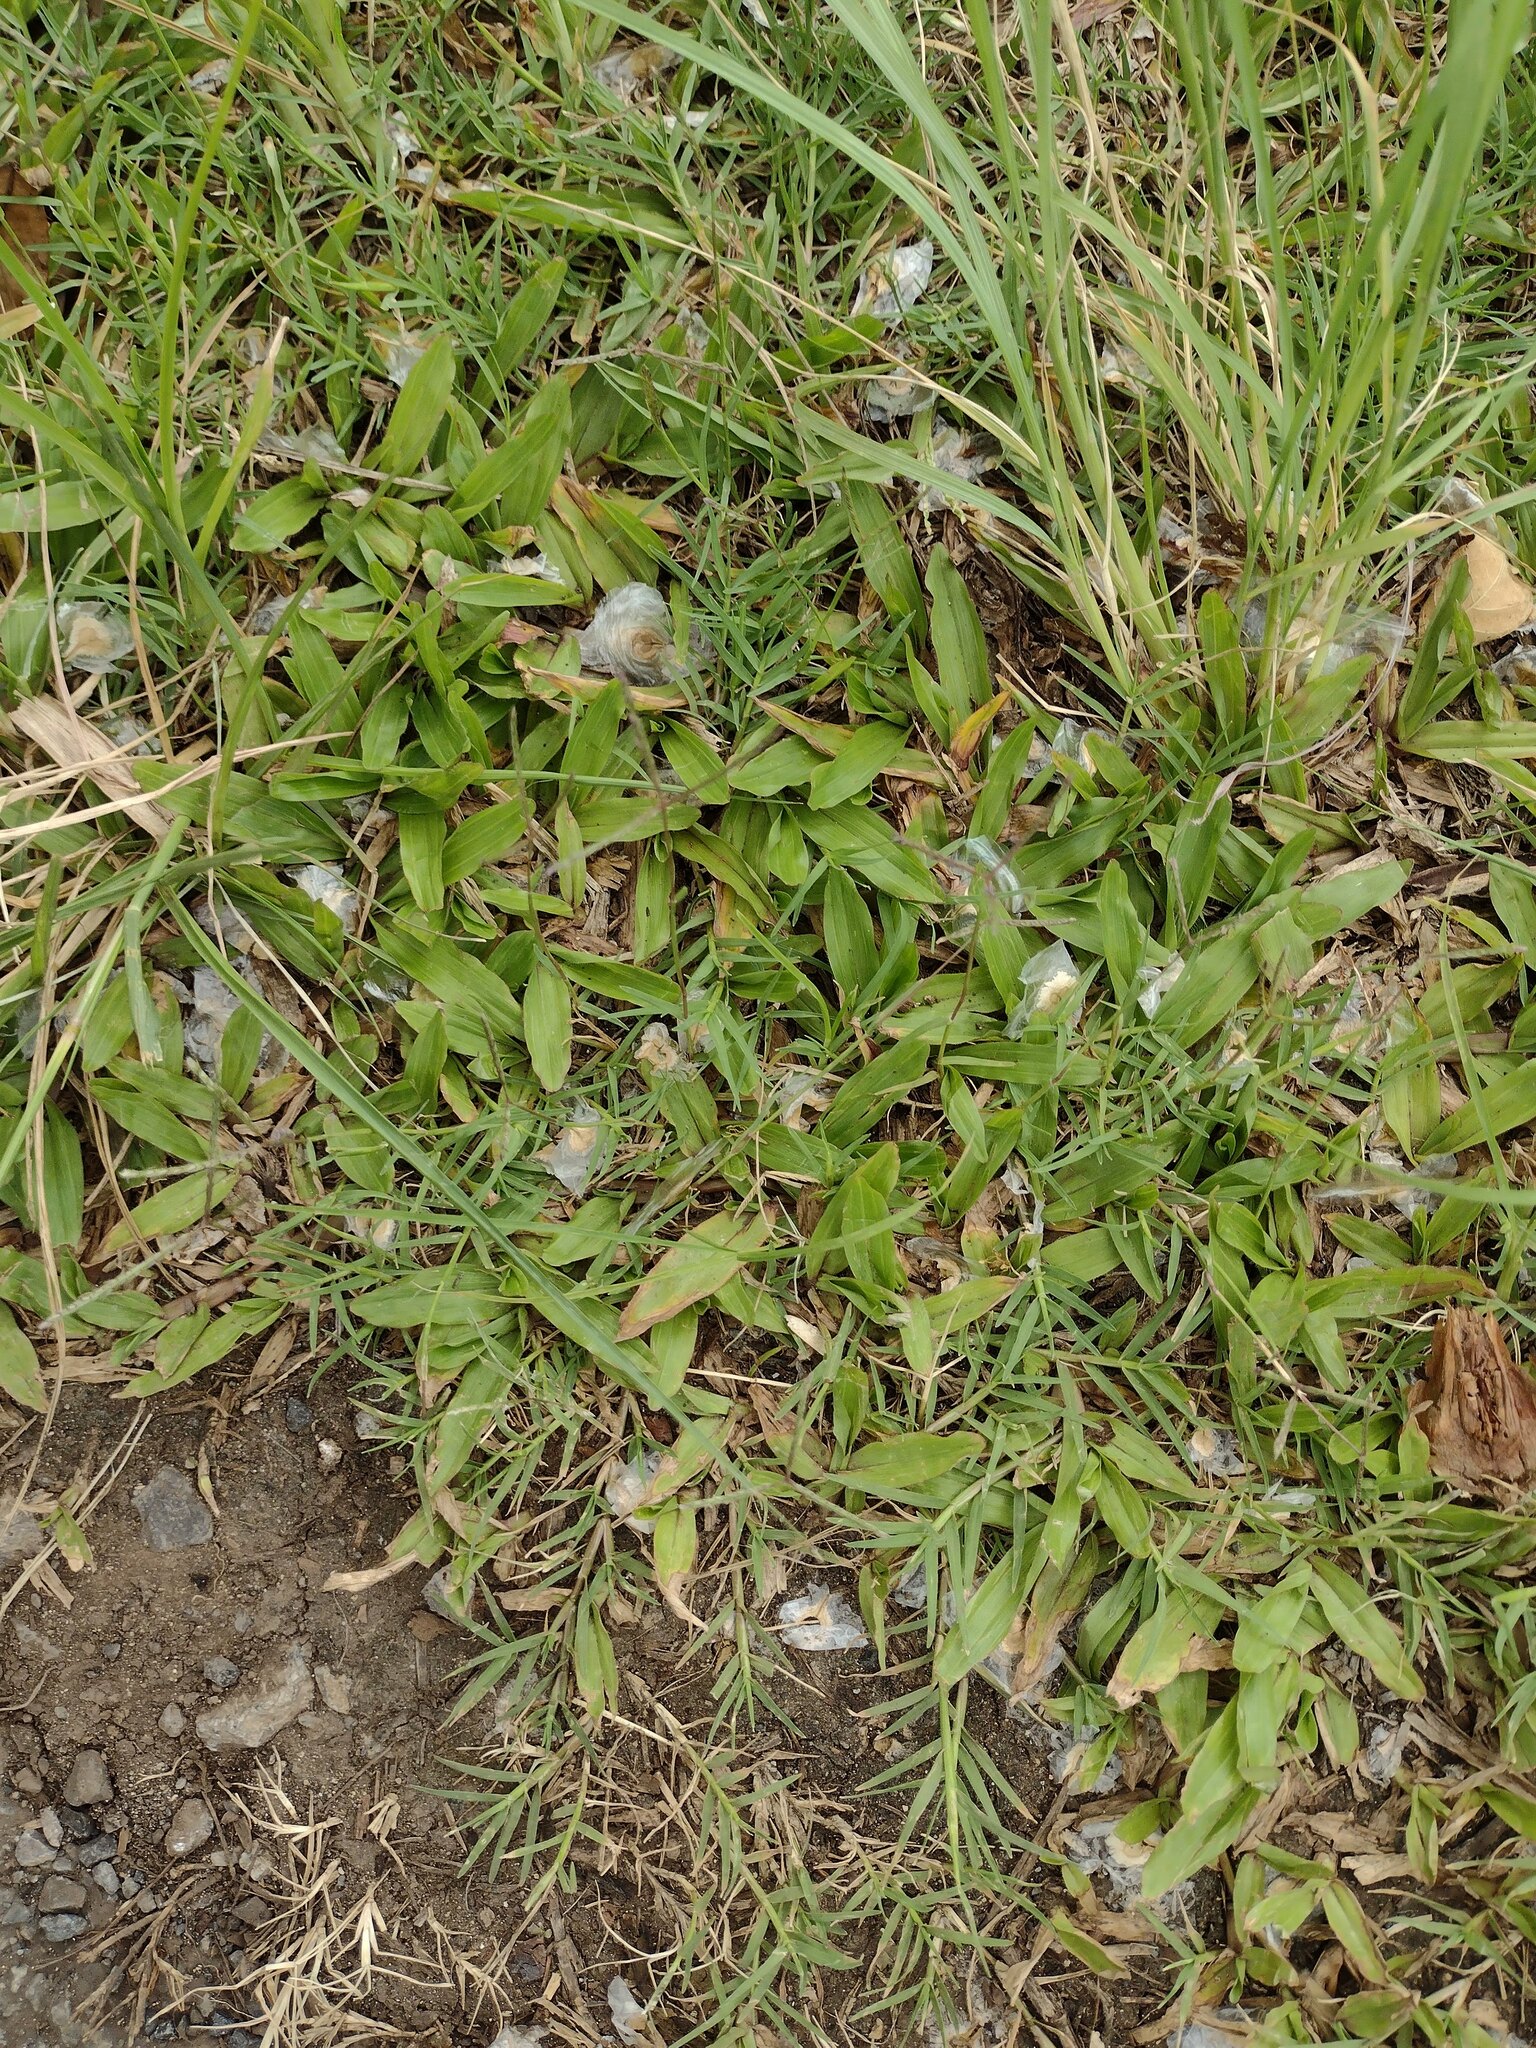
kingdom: Plantae
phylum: Tracheophyta
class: Magnoliopsida
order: Lamiales
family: Bignoniaceae
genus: Spathodea
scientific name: Spathodea campanulata
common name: African tuliptree
